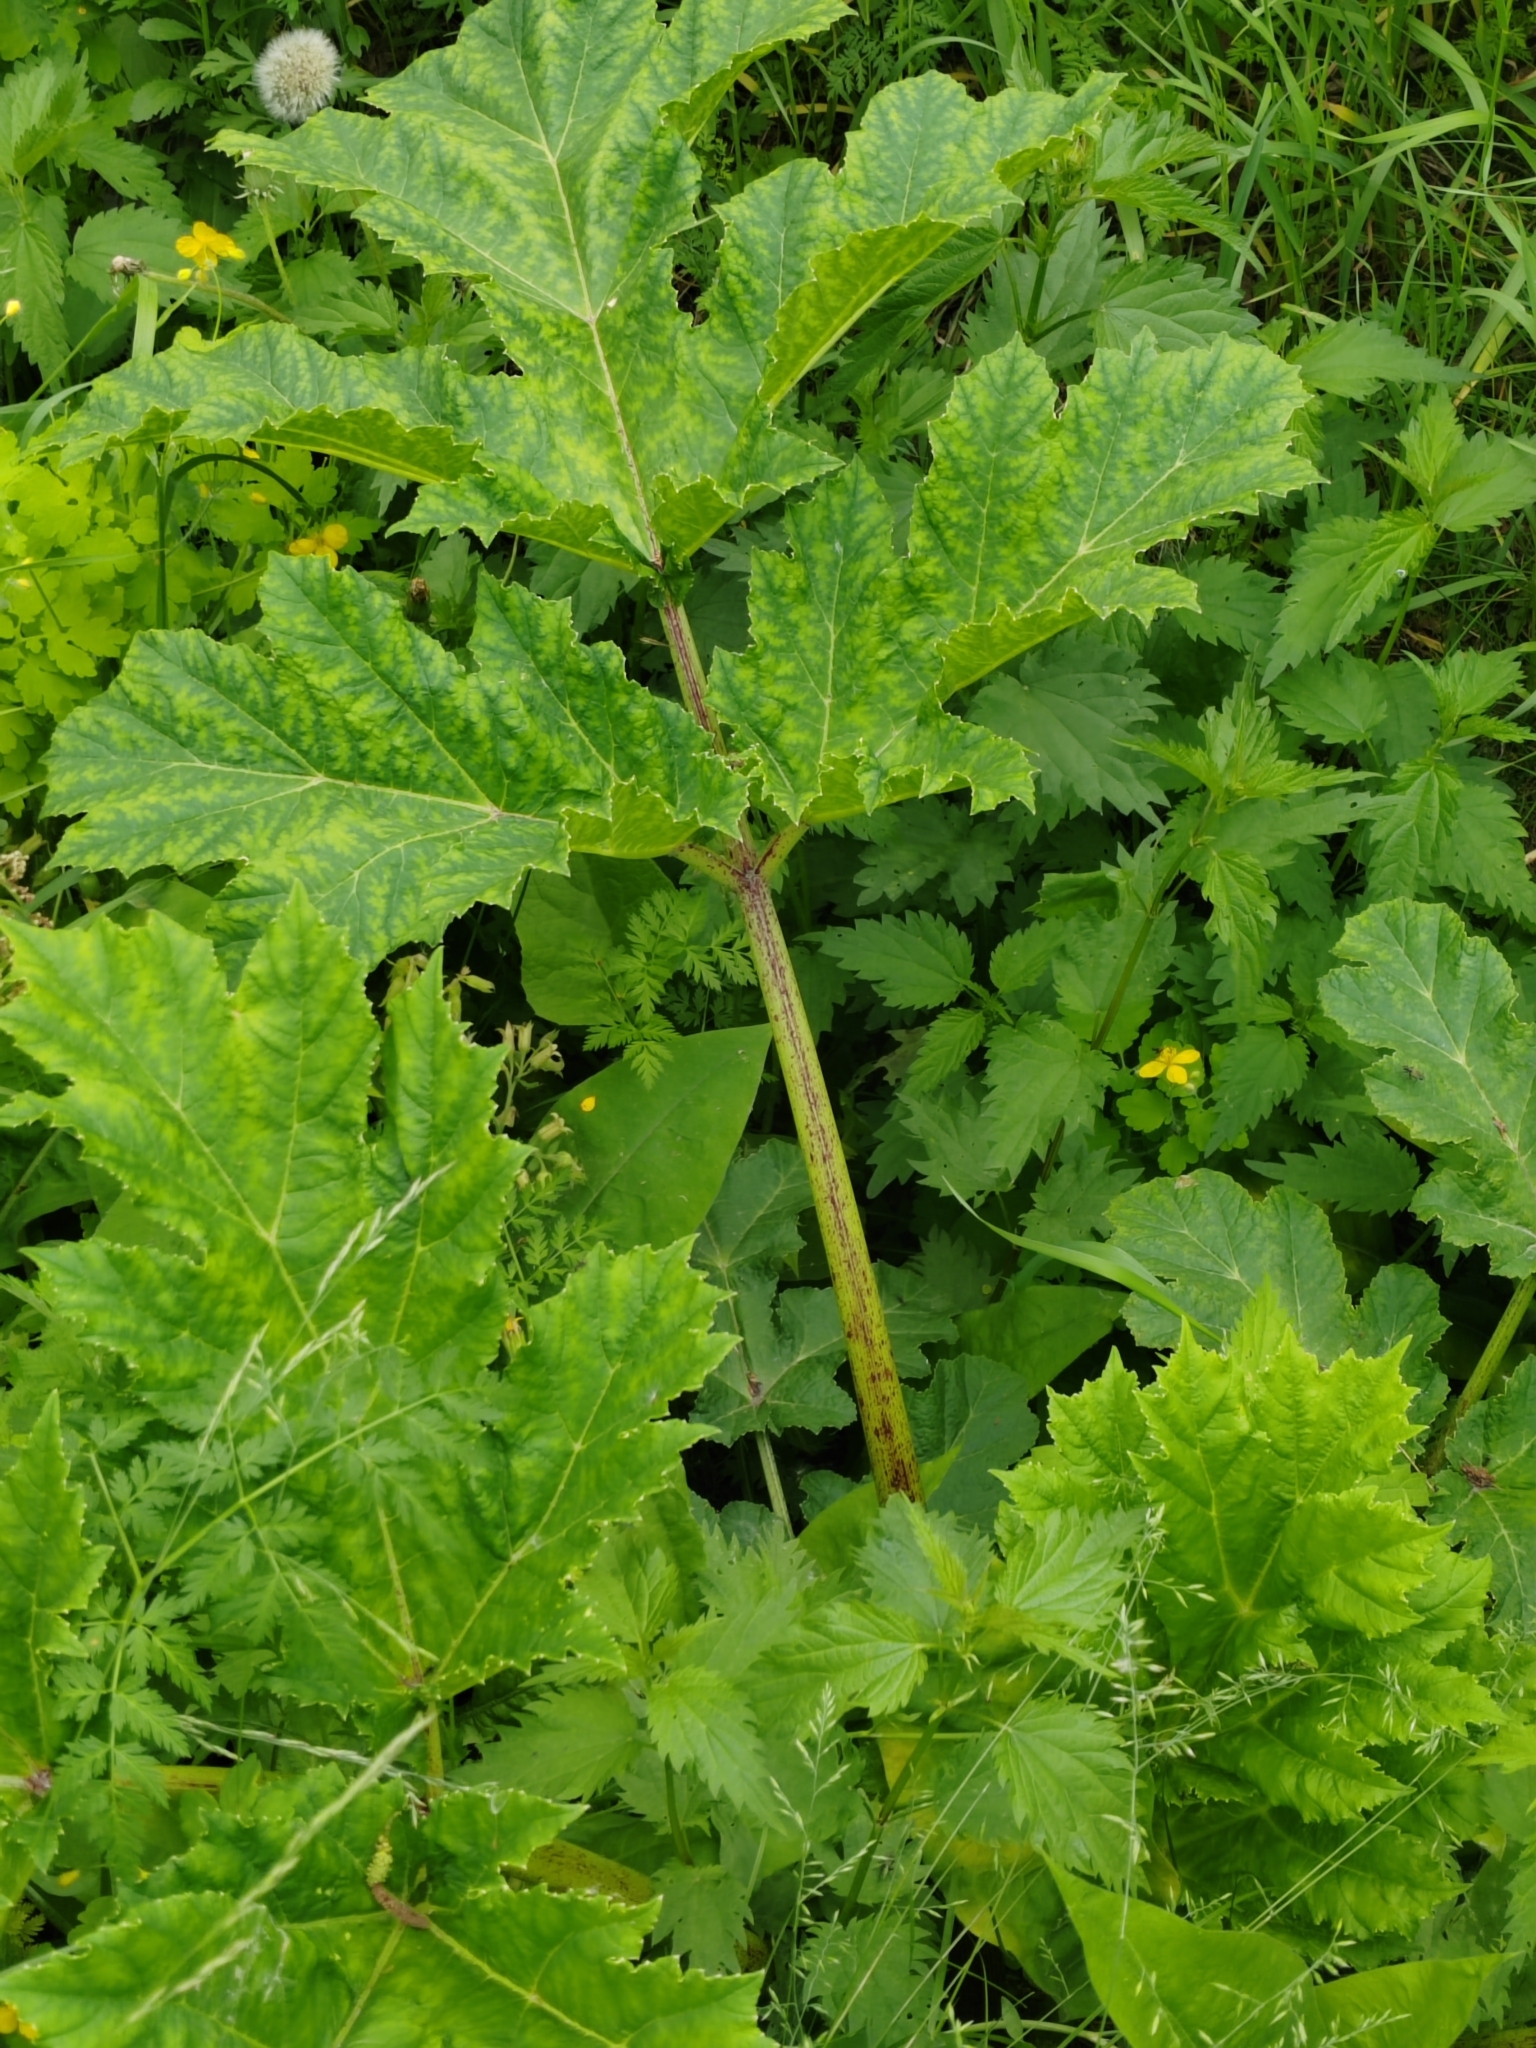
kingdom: Plantae
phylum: Tracheophyta
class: Magnoliopsida
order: Apiales
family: Apiaceae
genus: Heracleum
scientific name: Heracleum sosnowskyi
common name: Sosnowsky's hogweed
